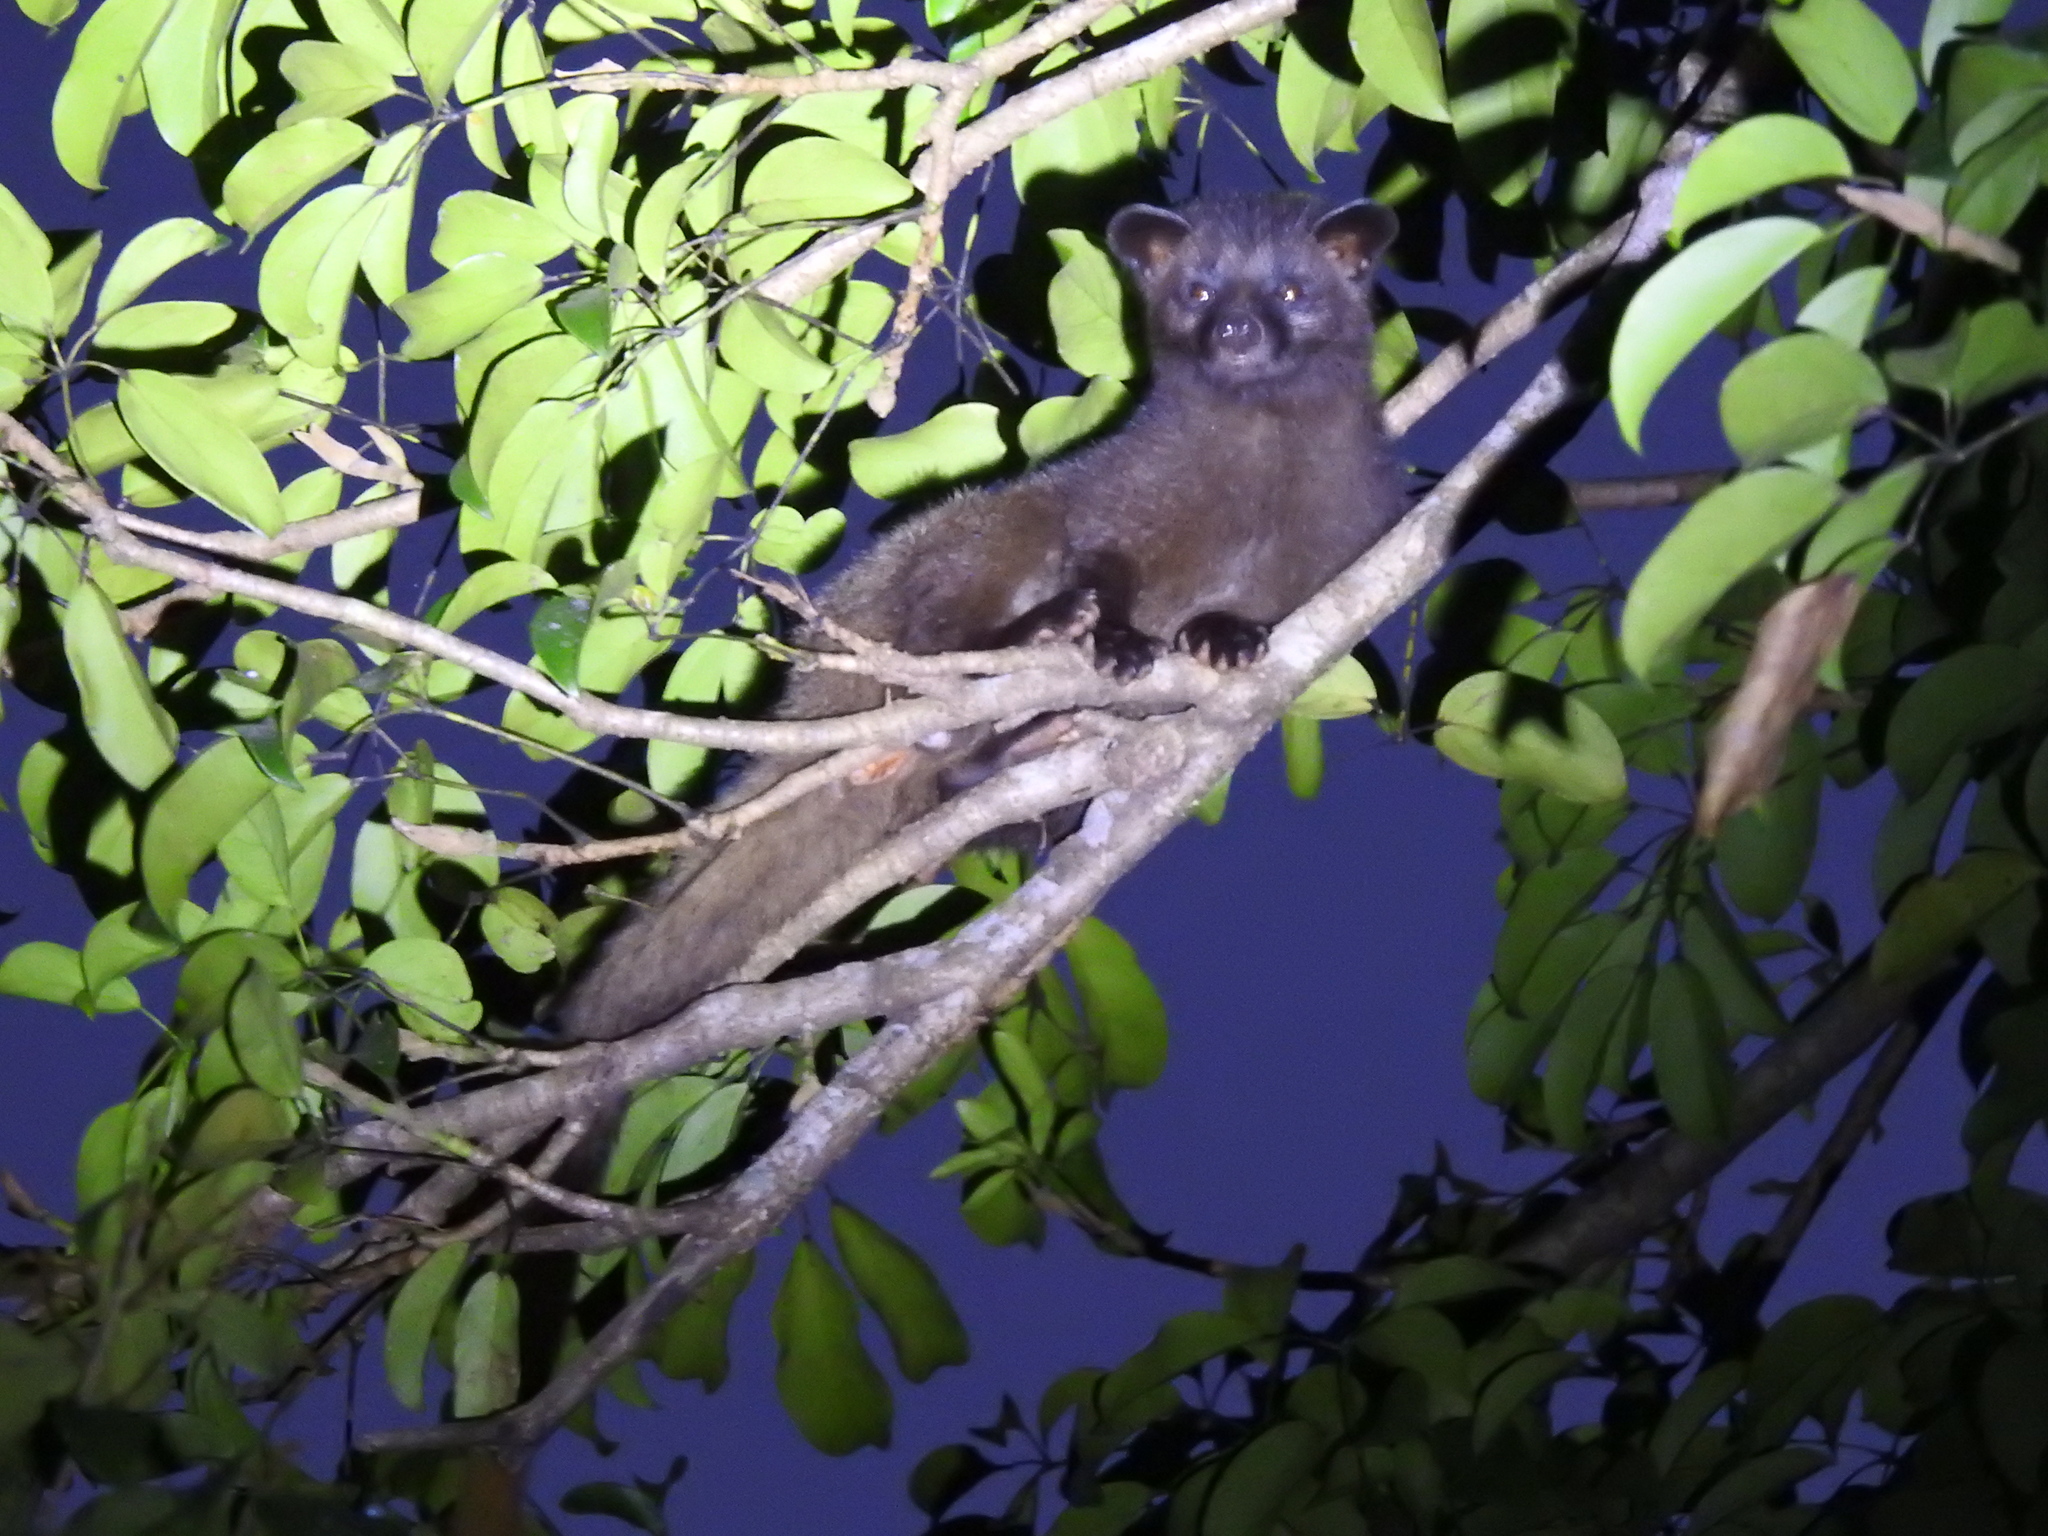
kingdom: Animalia
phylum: Chordata
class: Mammalia
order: Carnivora
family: Viverridae
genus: Paradoxurus
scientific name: Paradoxurus jerdoni
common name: Jerdon's palm civet
